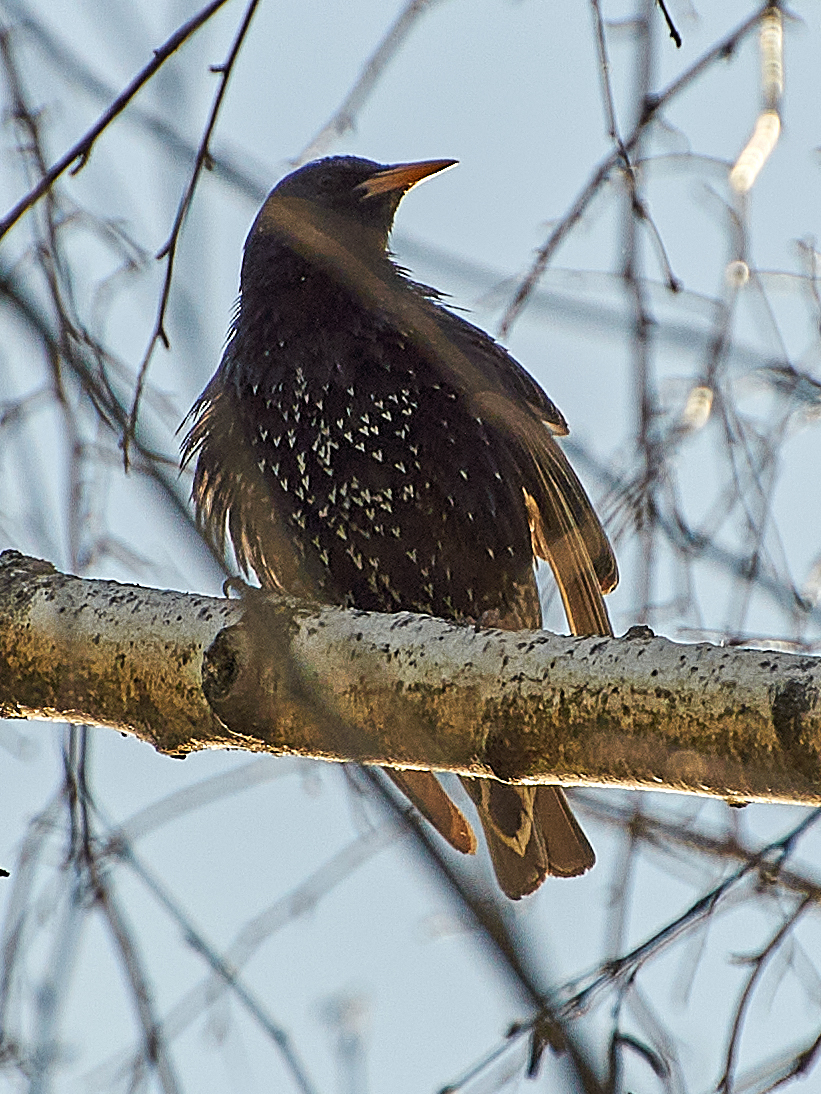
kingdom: Animalia
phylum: Chordata
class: Aves
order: Passeriformes
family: Sturnidae
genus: Sturnus
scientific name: Sturnus vulgaris
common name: Common starling
